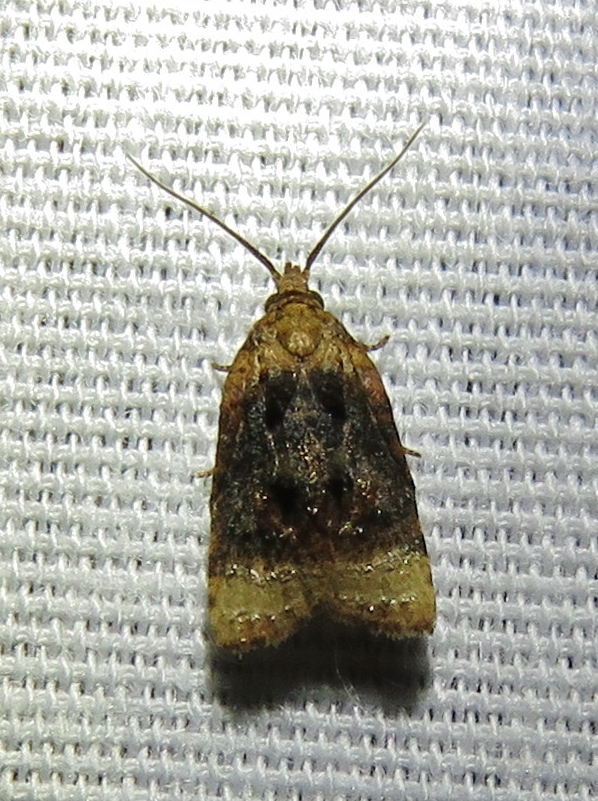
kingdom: Animalia
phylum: Arthropoda
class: Insecta
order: Lepidoptera
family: Tortricidae
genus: Platynota
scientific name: Platynota flavedana
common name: Black-shaded platynota moth
